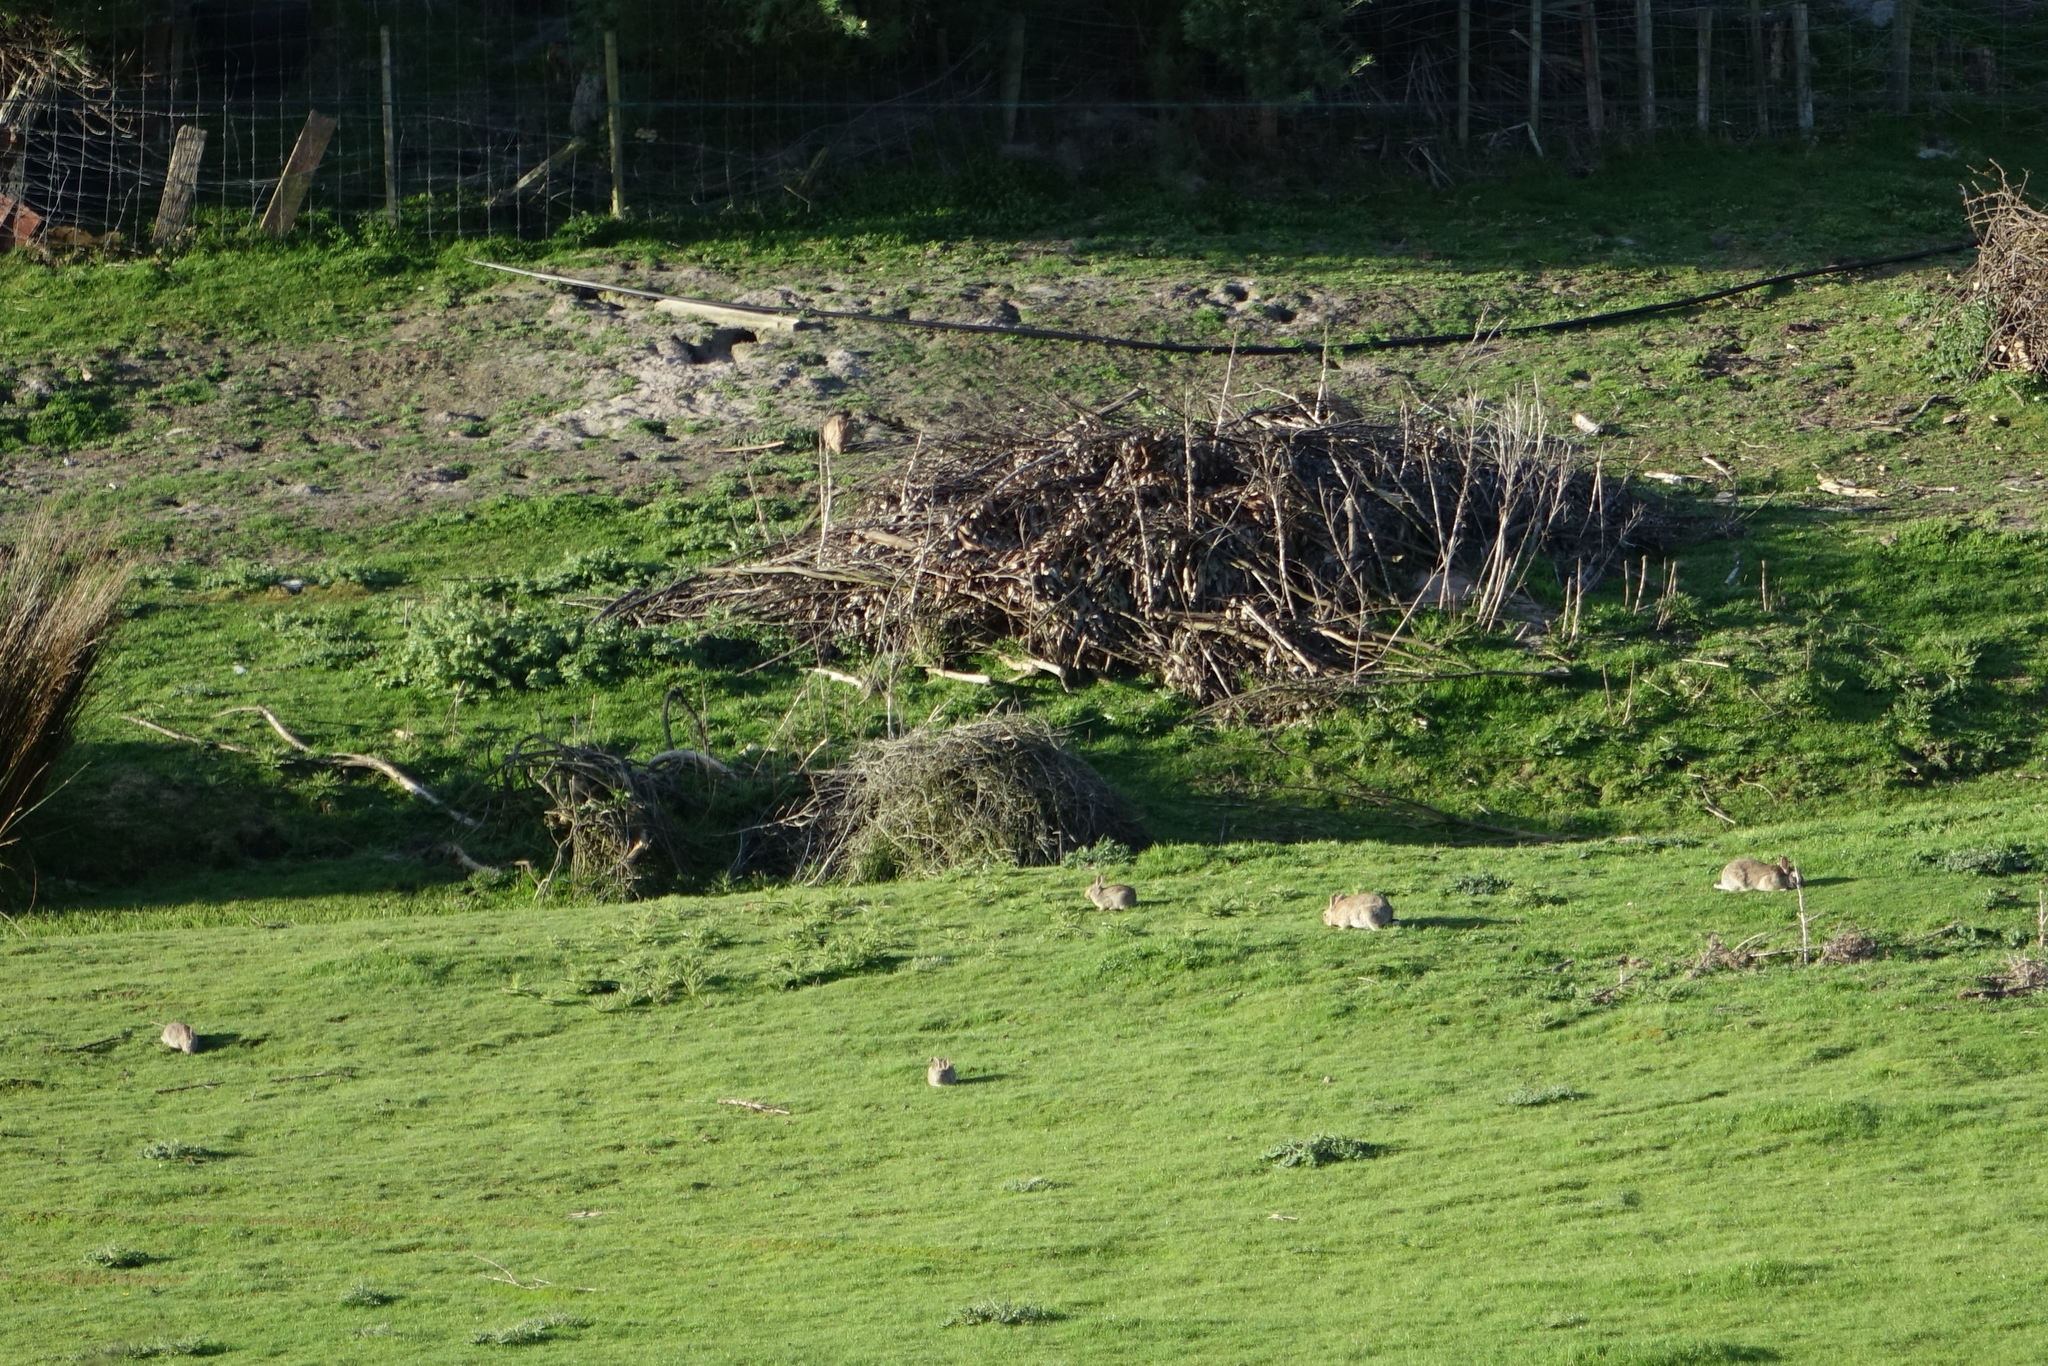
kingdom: Animalia
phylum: Chordata
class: Mammalia
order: Lagomorpha
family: Leporidae
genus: Oryctolagus
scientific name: Oryctolagus cuniculus
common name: European rabbit
